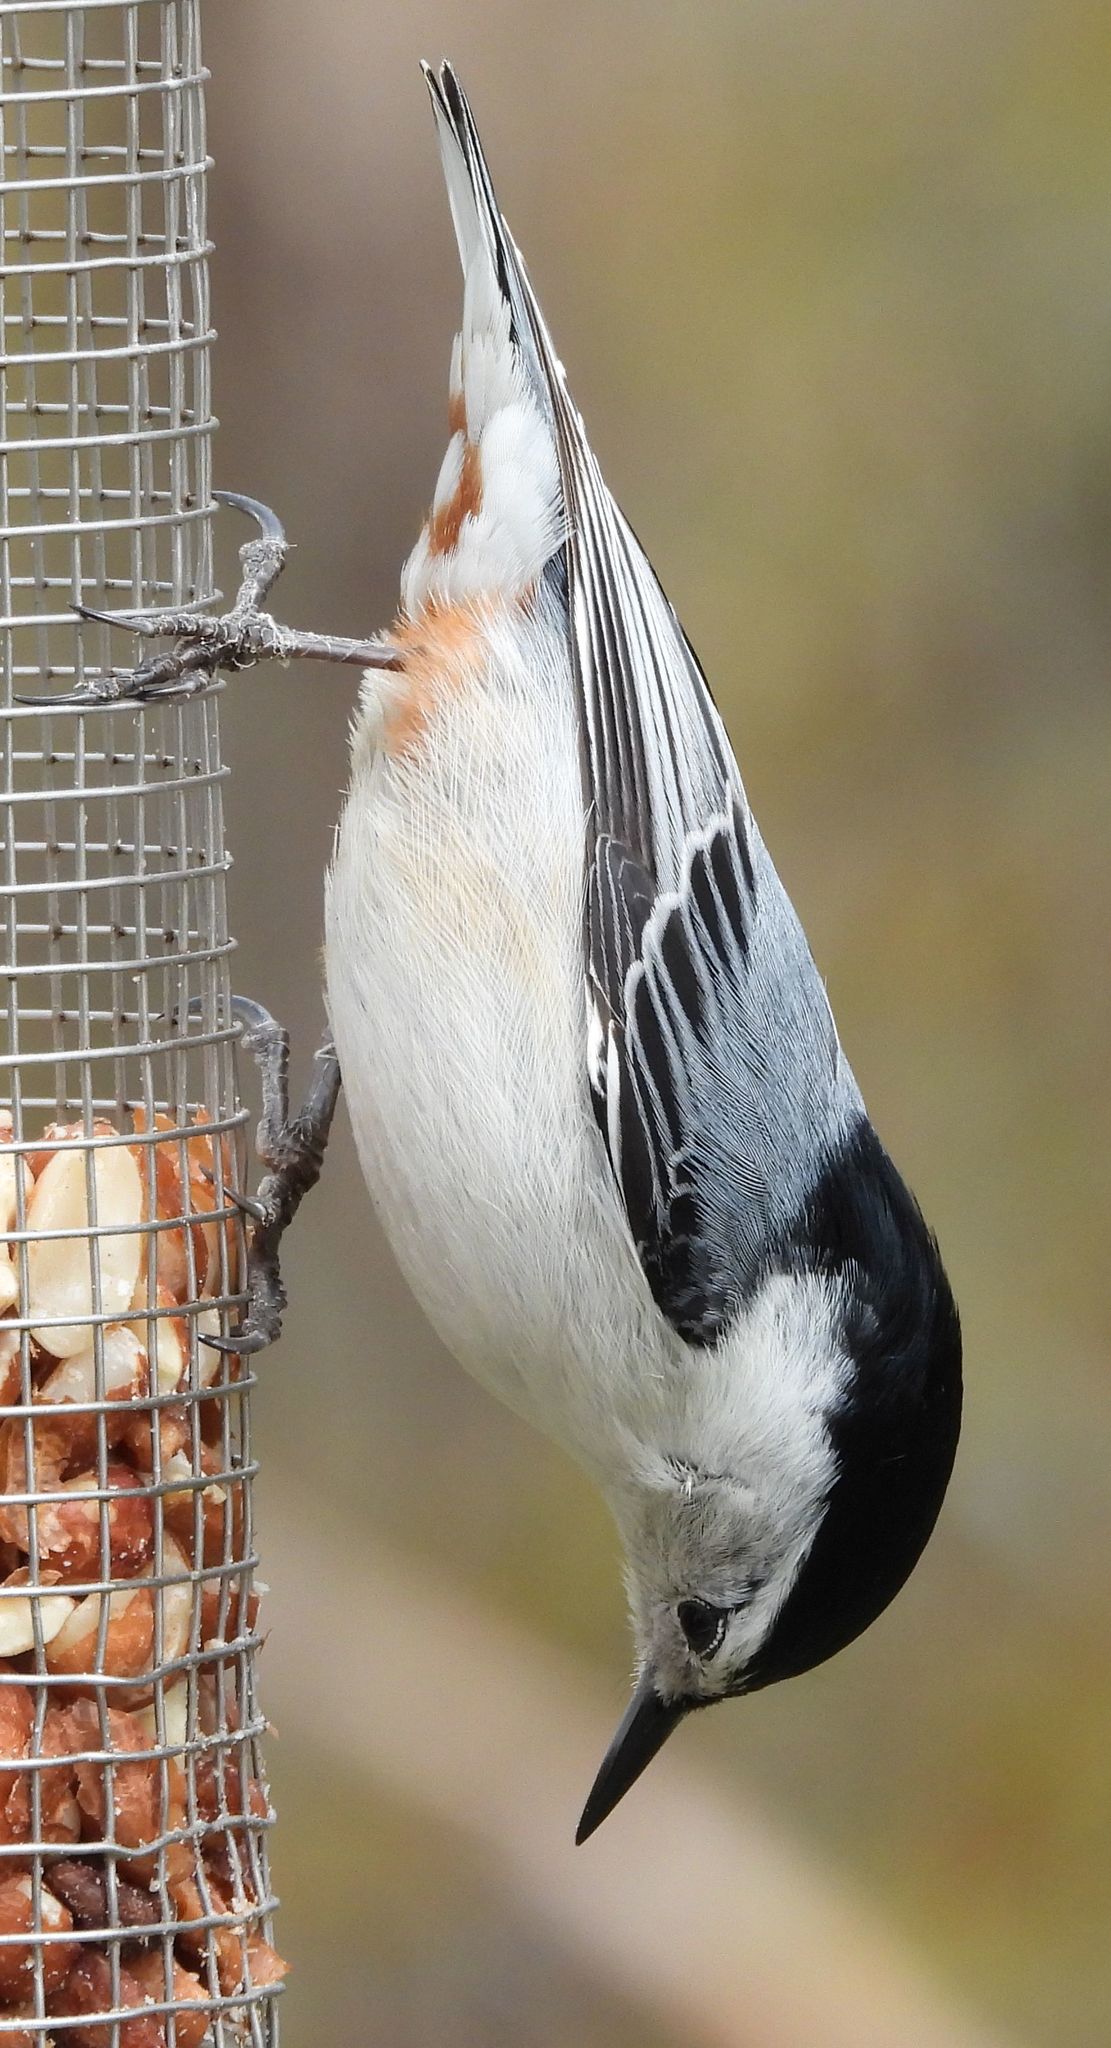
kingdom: Animalia
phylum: Chordata
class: Aves
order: Passeriformes
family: Sittidae
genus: Sitta
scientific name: Sitta carolinensis
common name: White-breasted nuthatch
